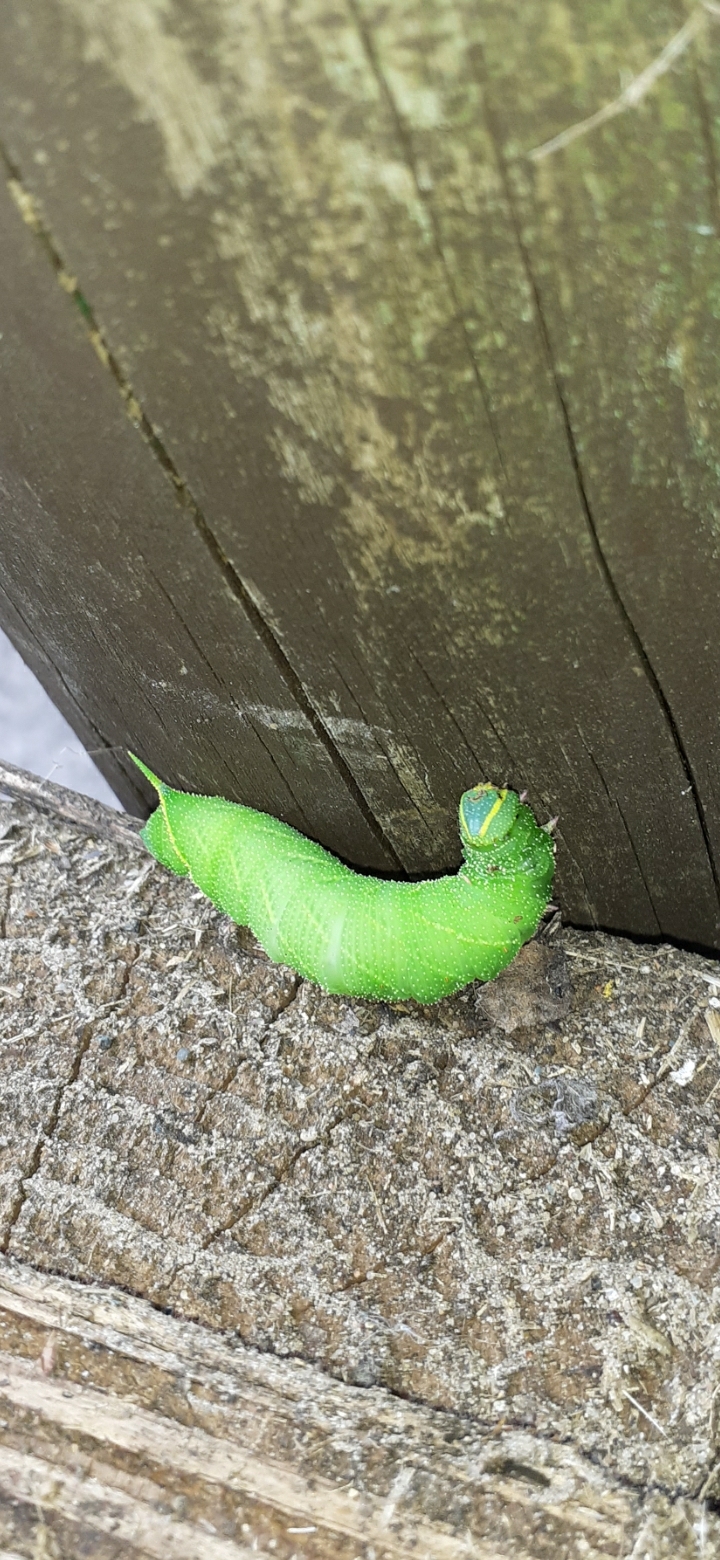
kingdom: Animalia
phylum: Arthropoda
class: Insecta
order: Lepidoptera
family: Sphingidae
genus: Laothoe
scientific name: Laothoe populi
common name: Poplar hawk-moth
